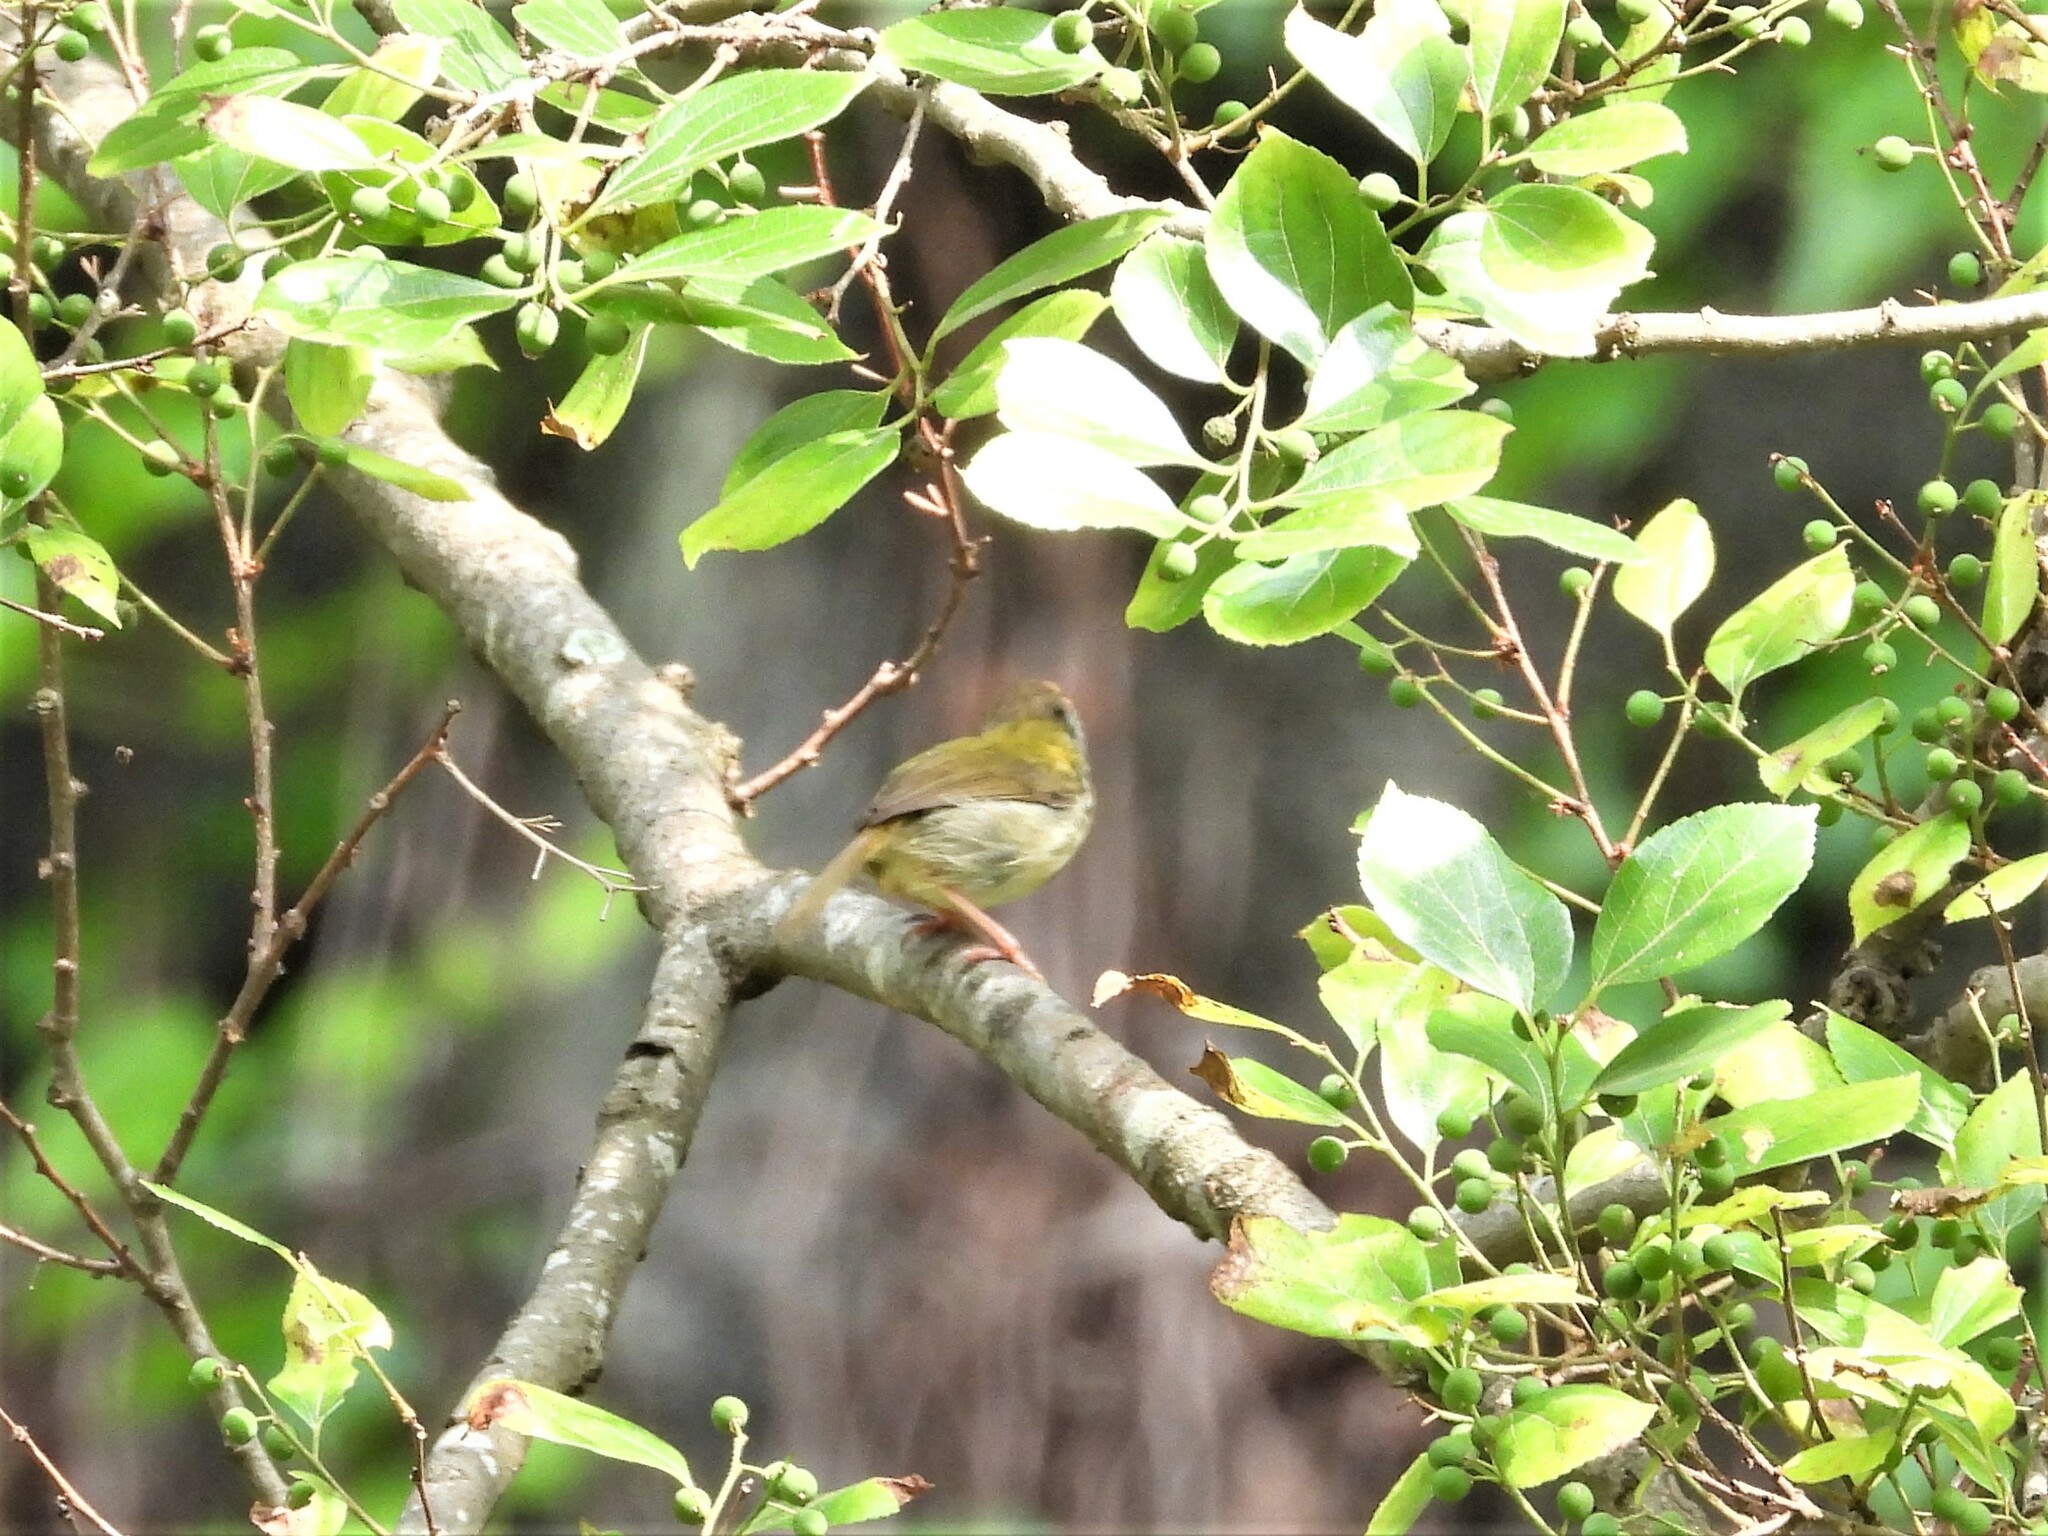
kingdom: Animalia
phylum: Chordata
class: Aves
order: Passeriformes
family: Cisticolidae
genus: Orthotomus
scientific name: Orthotomus sutorius
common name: Common tailorbird
